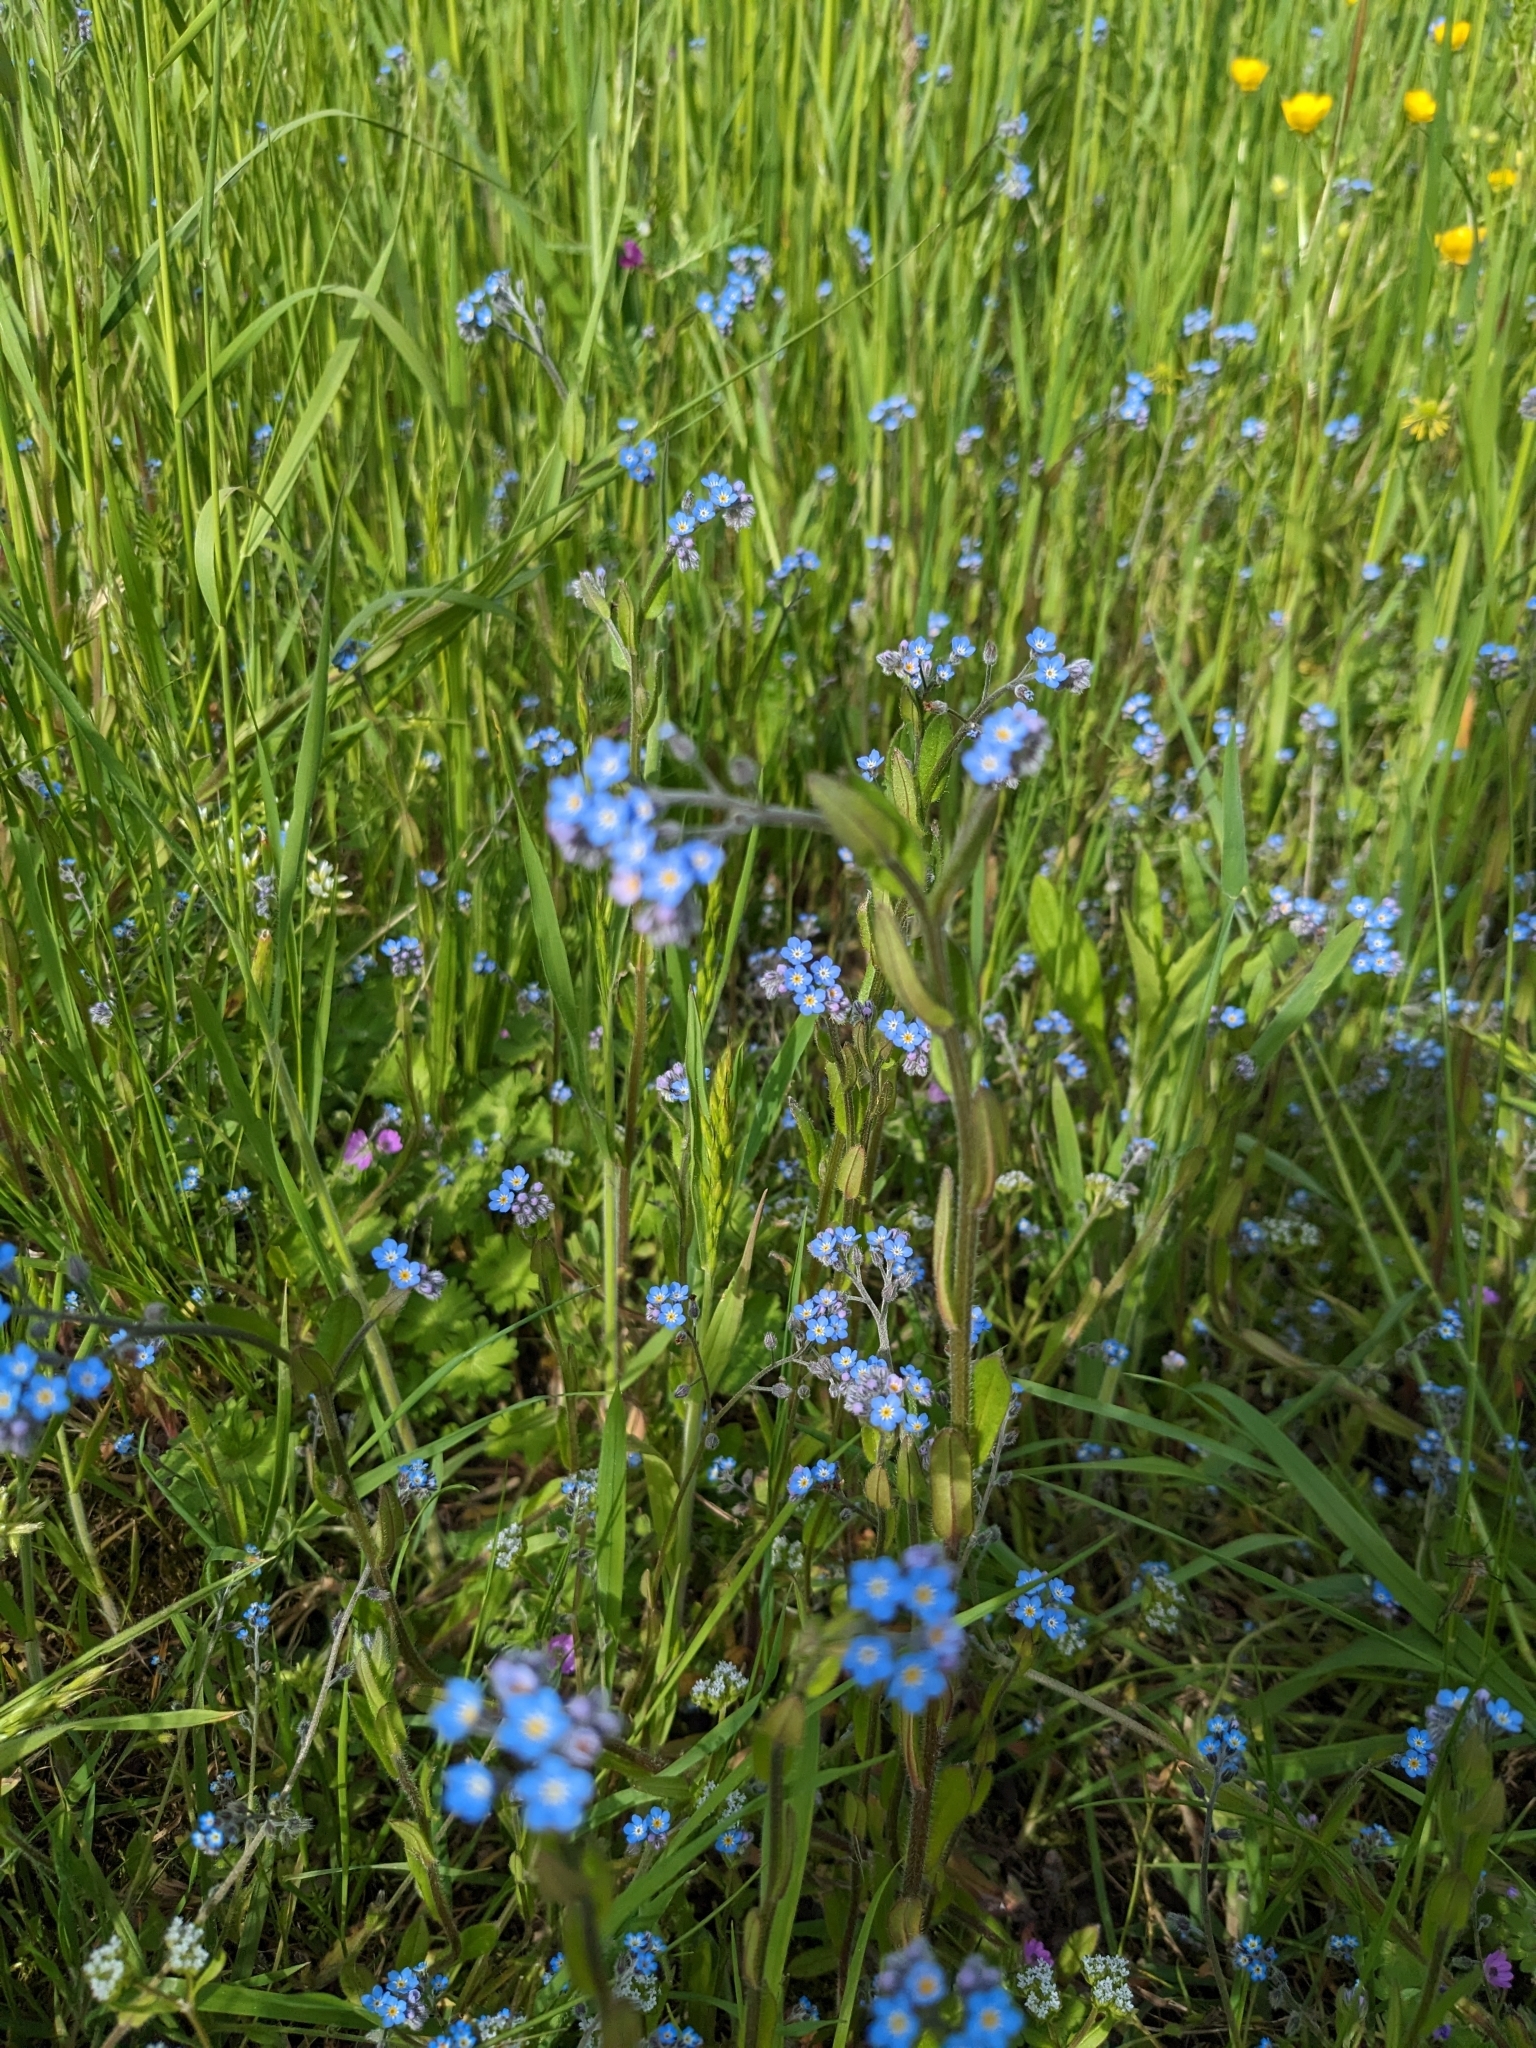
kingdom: Plantae
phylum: Tracheophyta
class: Magnoliopsida
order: Boraginales
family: Boraginaceae
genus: Myosotis
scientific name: Myosotis arvensis
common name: Field forget-me-not
